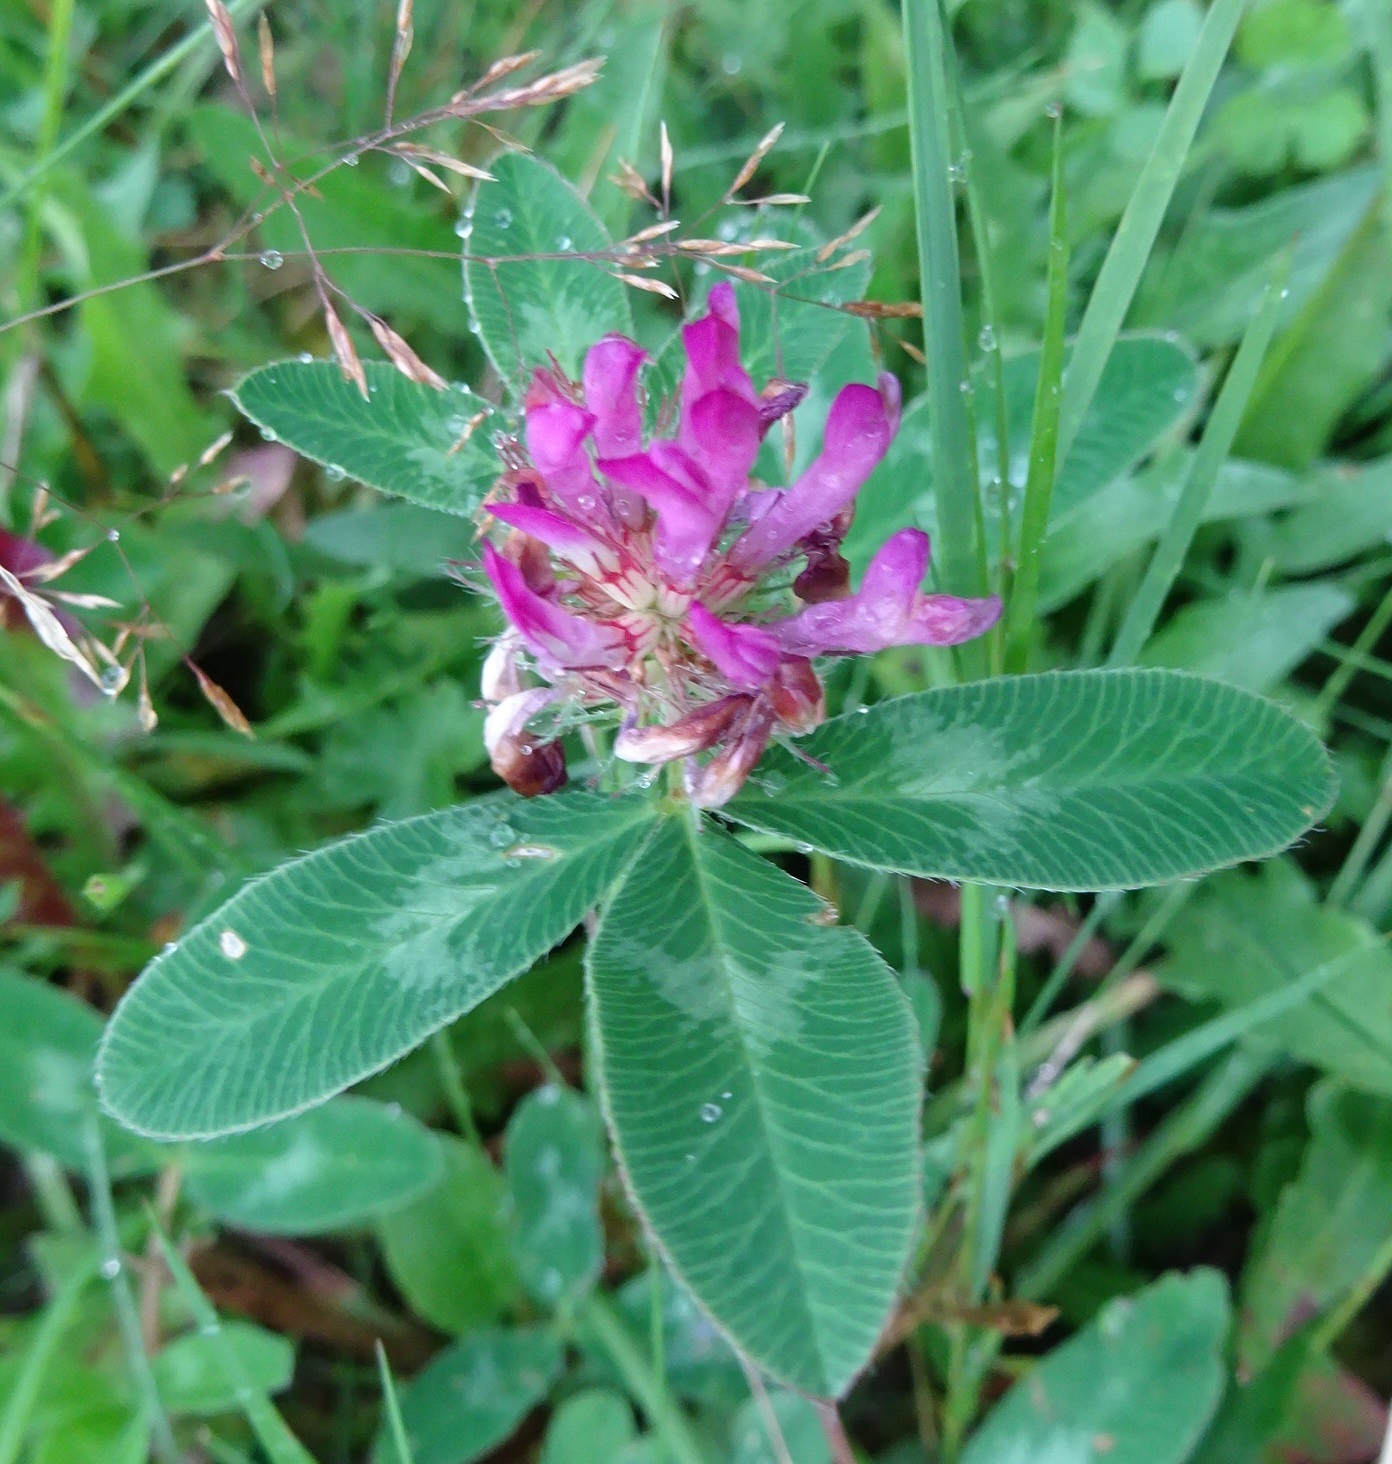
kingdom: Plantae
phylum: Tracheophyta
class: Magnoliopsida
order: Fabales
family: Fabaceae
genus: Trifolium
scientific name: Trifolium pratense
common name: Red clover
